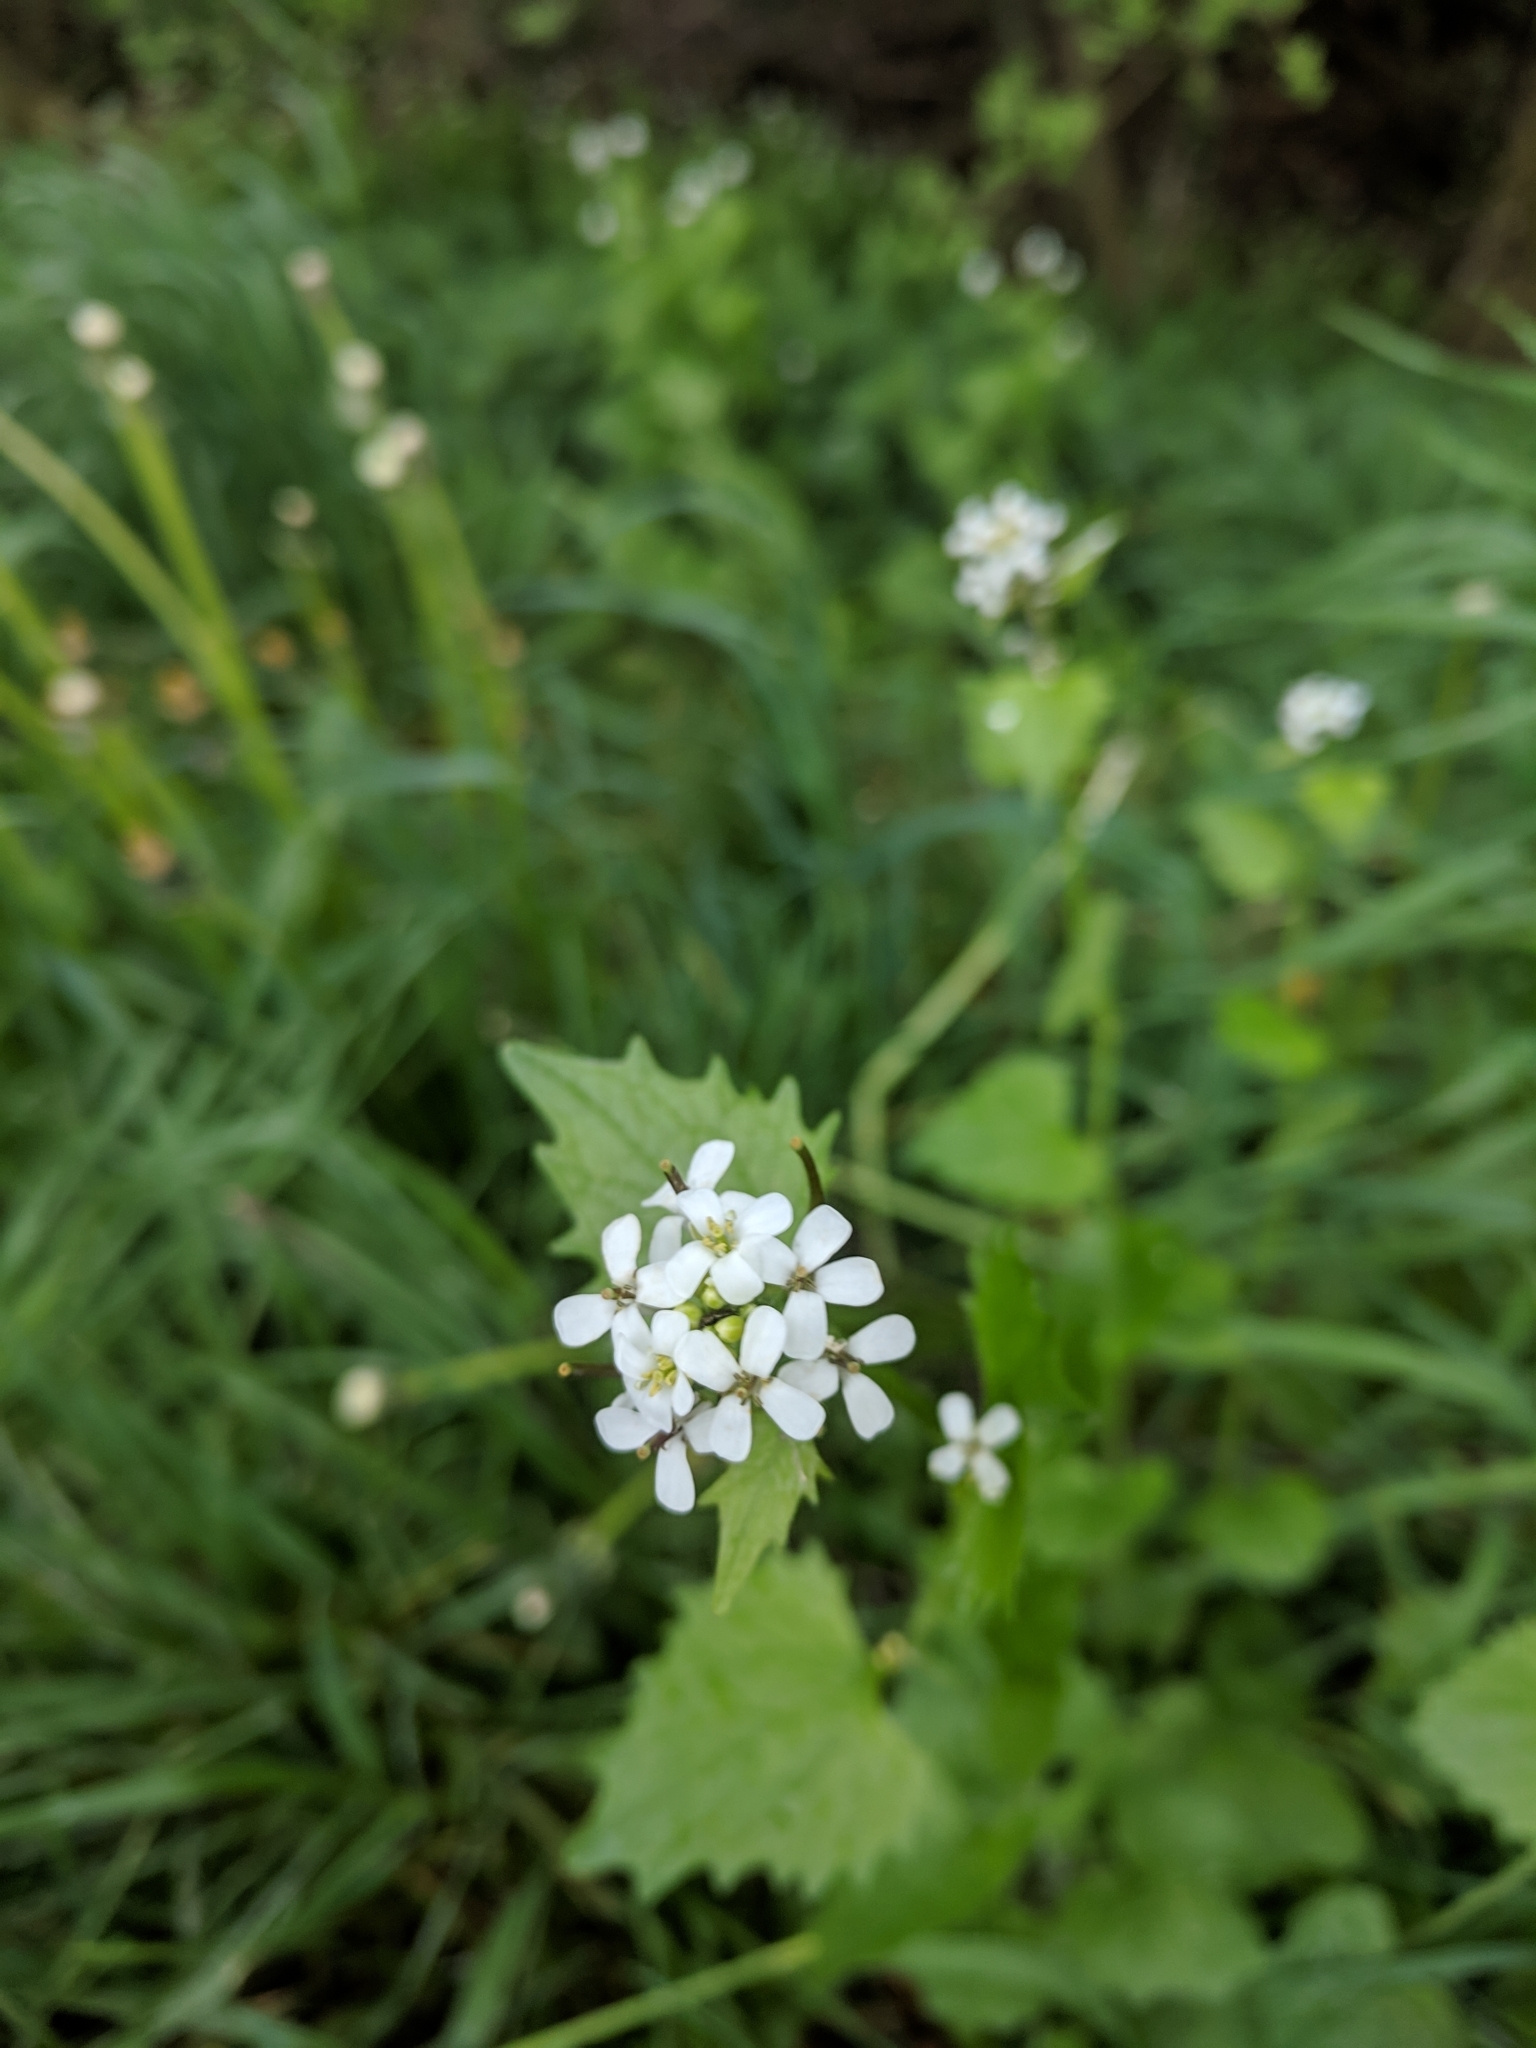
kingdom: Plantae
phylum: Tracheophyta
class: Magnoliopsida
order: Brassicales
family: Brassicaceae
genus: Alliaria
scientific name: Alliaria petiolata
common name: Garlic mustard
